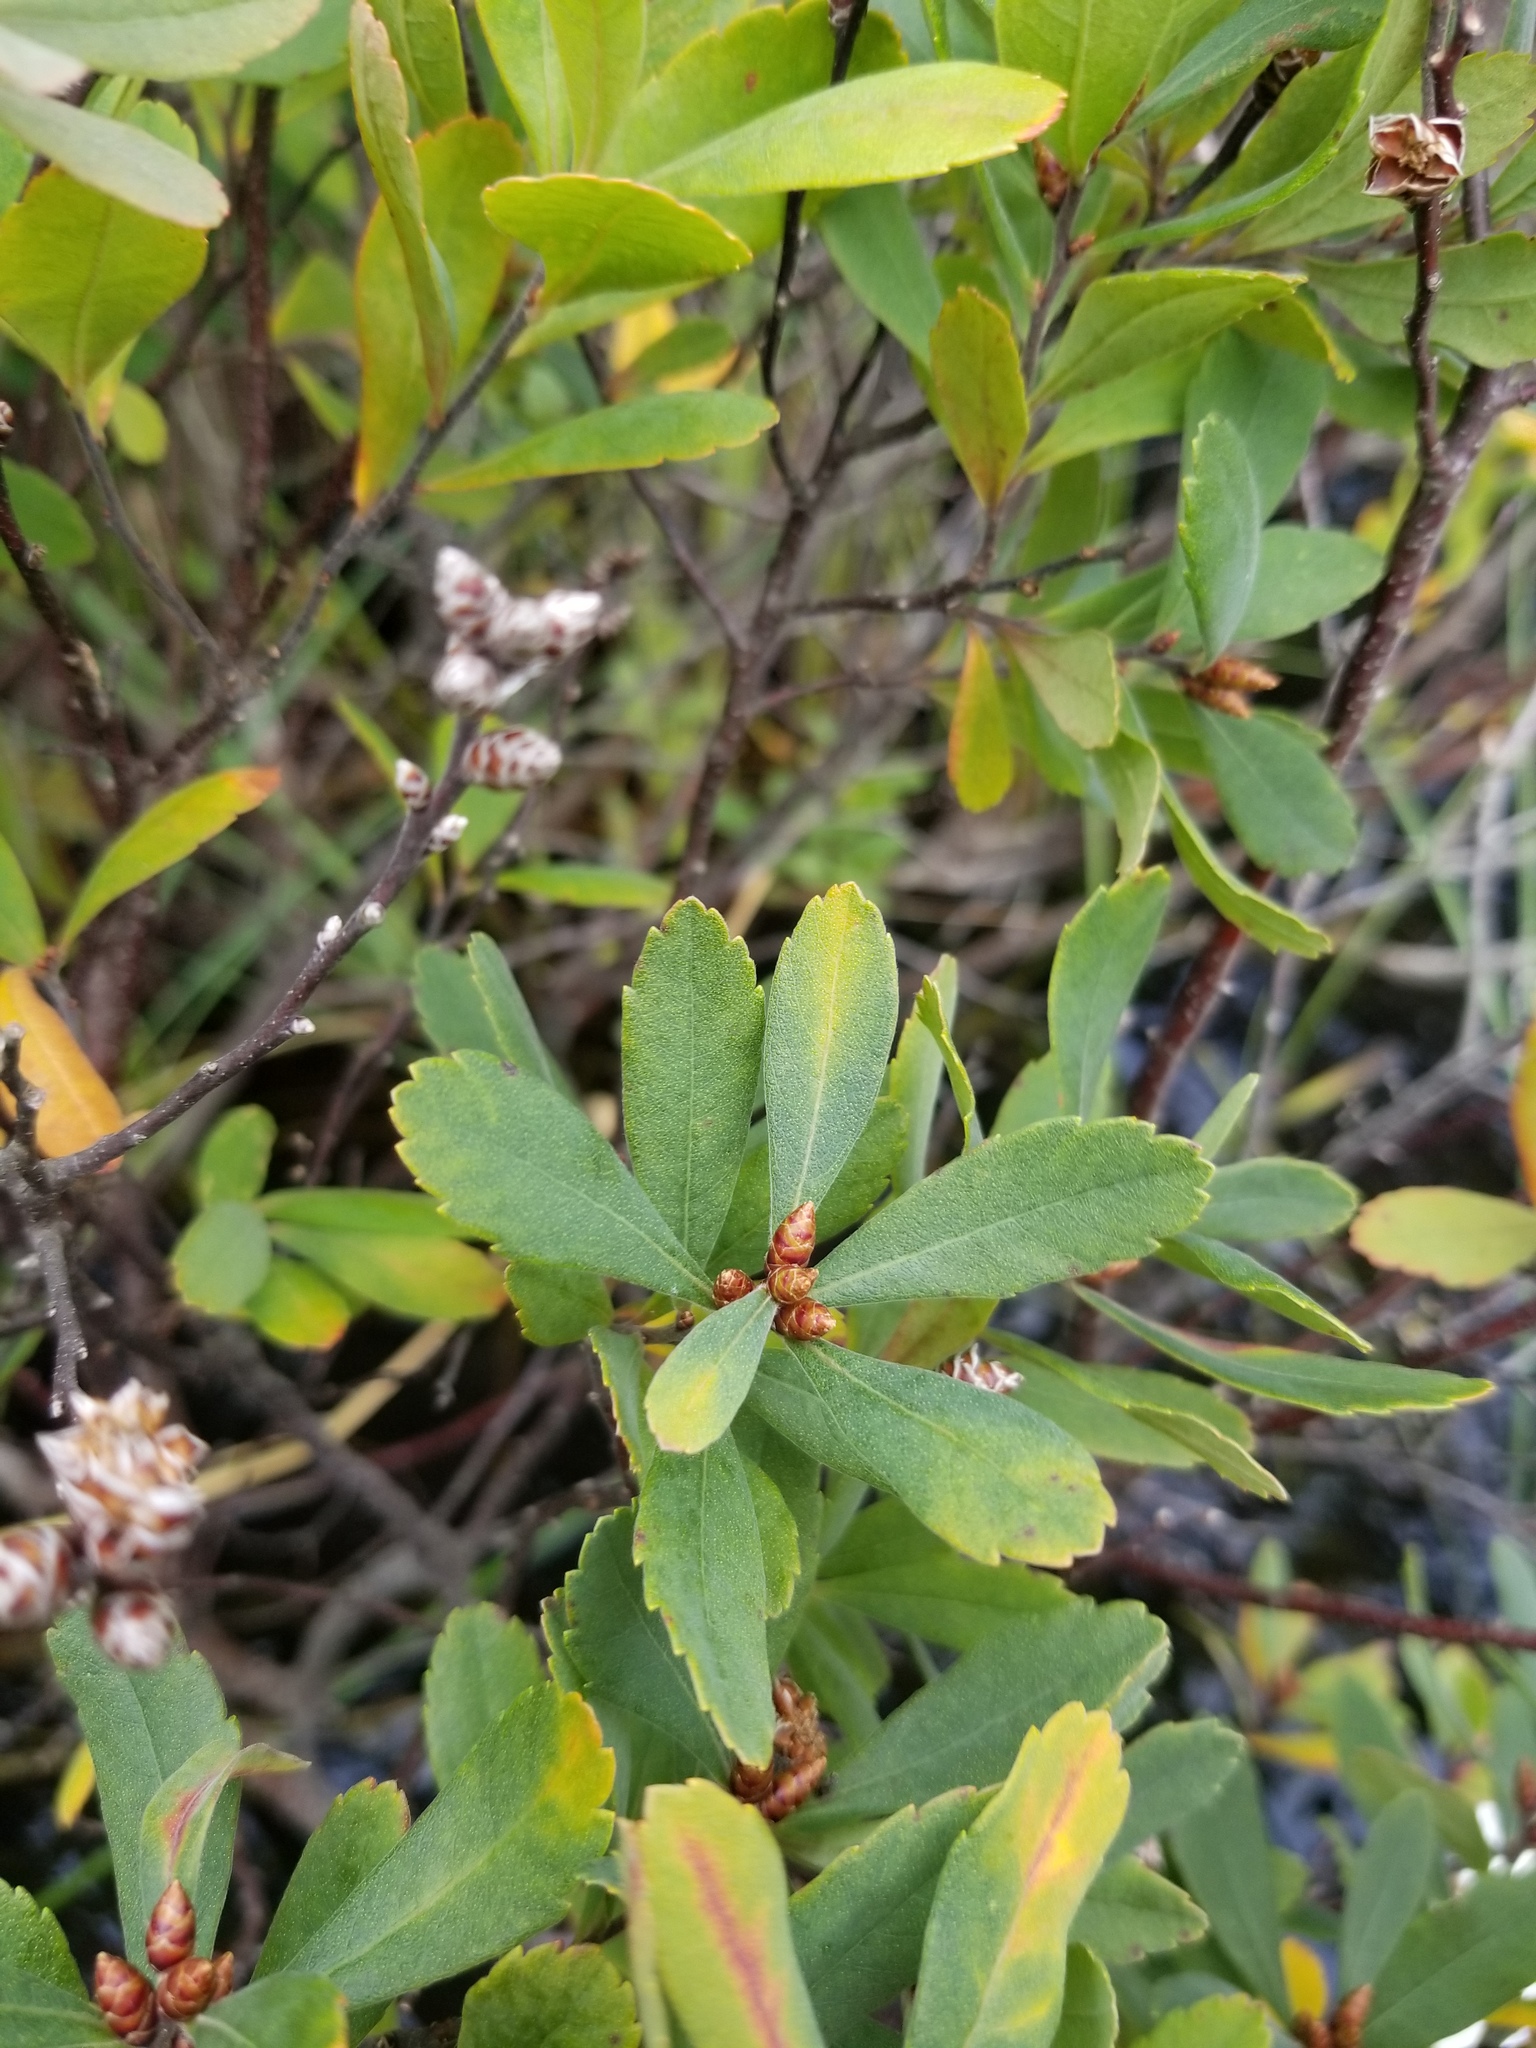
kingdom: Plantae
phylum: Tracheophyta
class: Magnoliopsida
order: Fagales
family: Myricaceae
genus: Myrica
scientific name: Myrica gale
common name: Sweet gale
